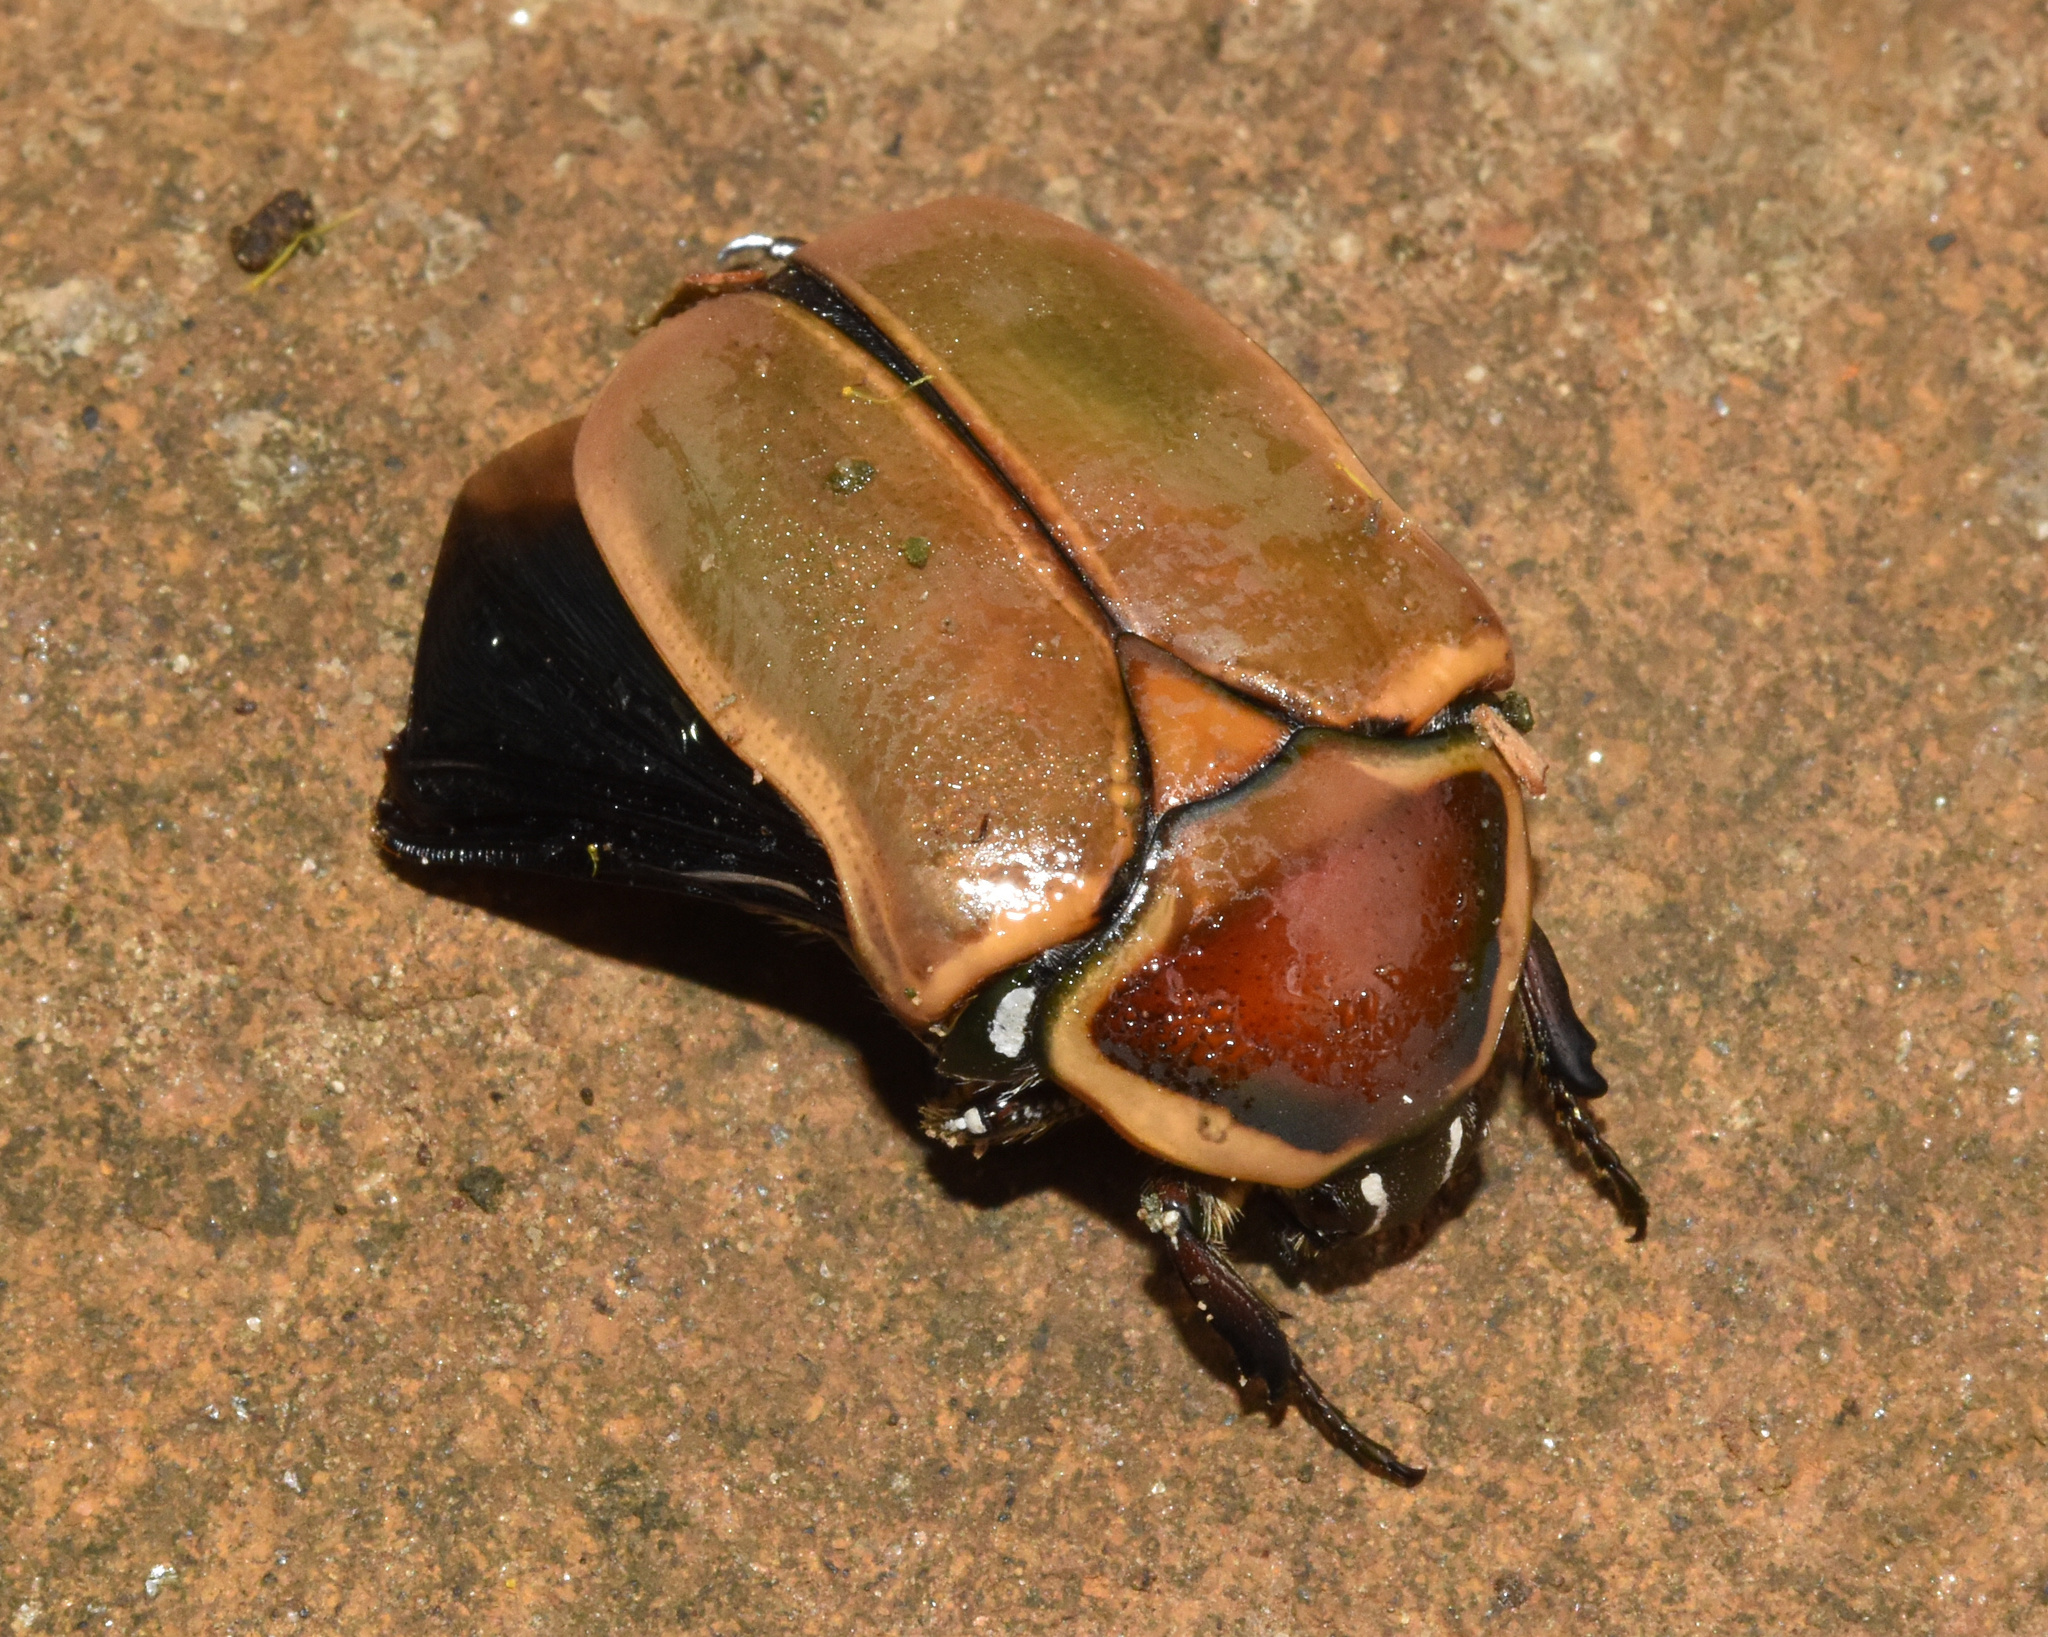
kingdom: Animalia
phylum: Arthropoda
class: Insecta
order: Coleoptera
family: Scarabaeidae
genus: Dischista
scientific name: Dischista cincta
